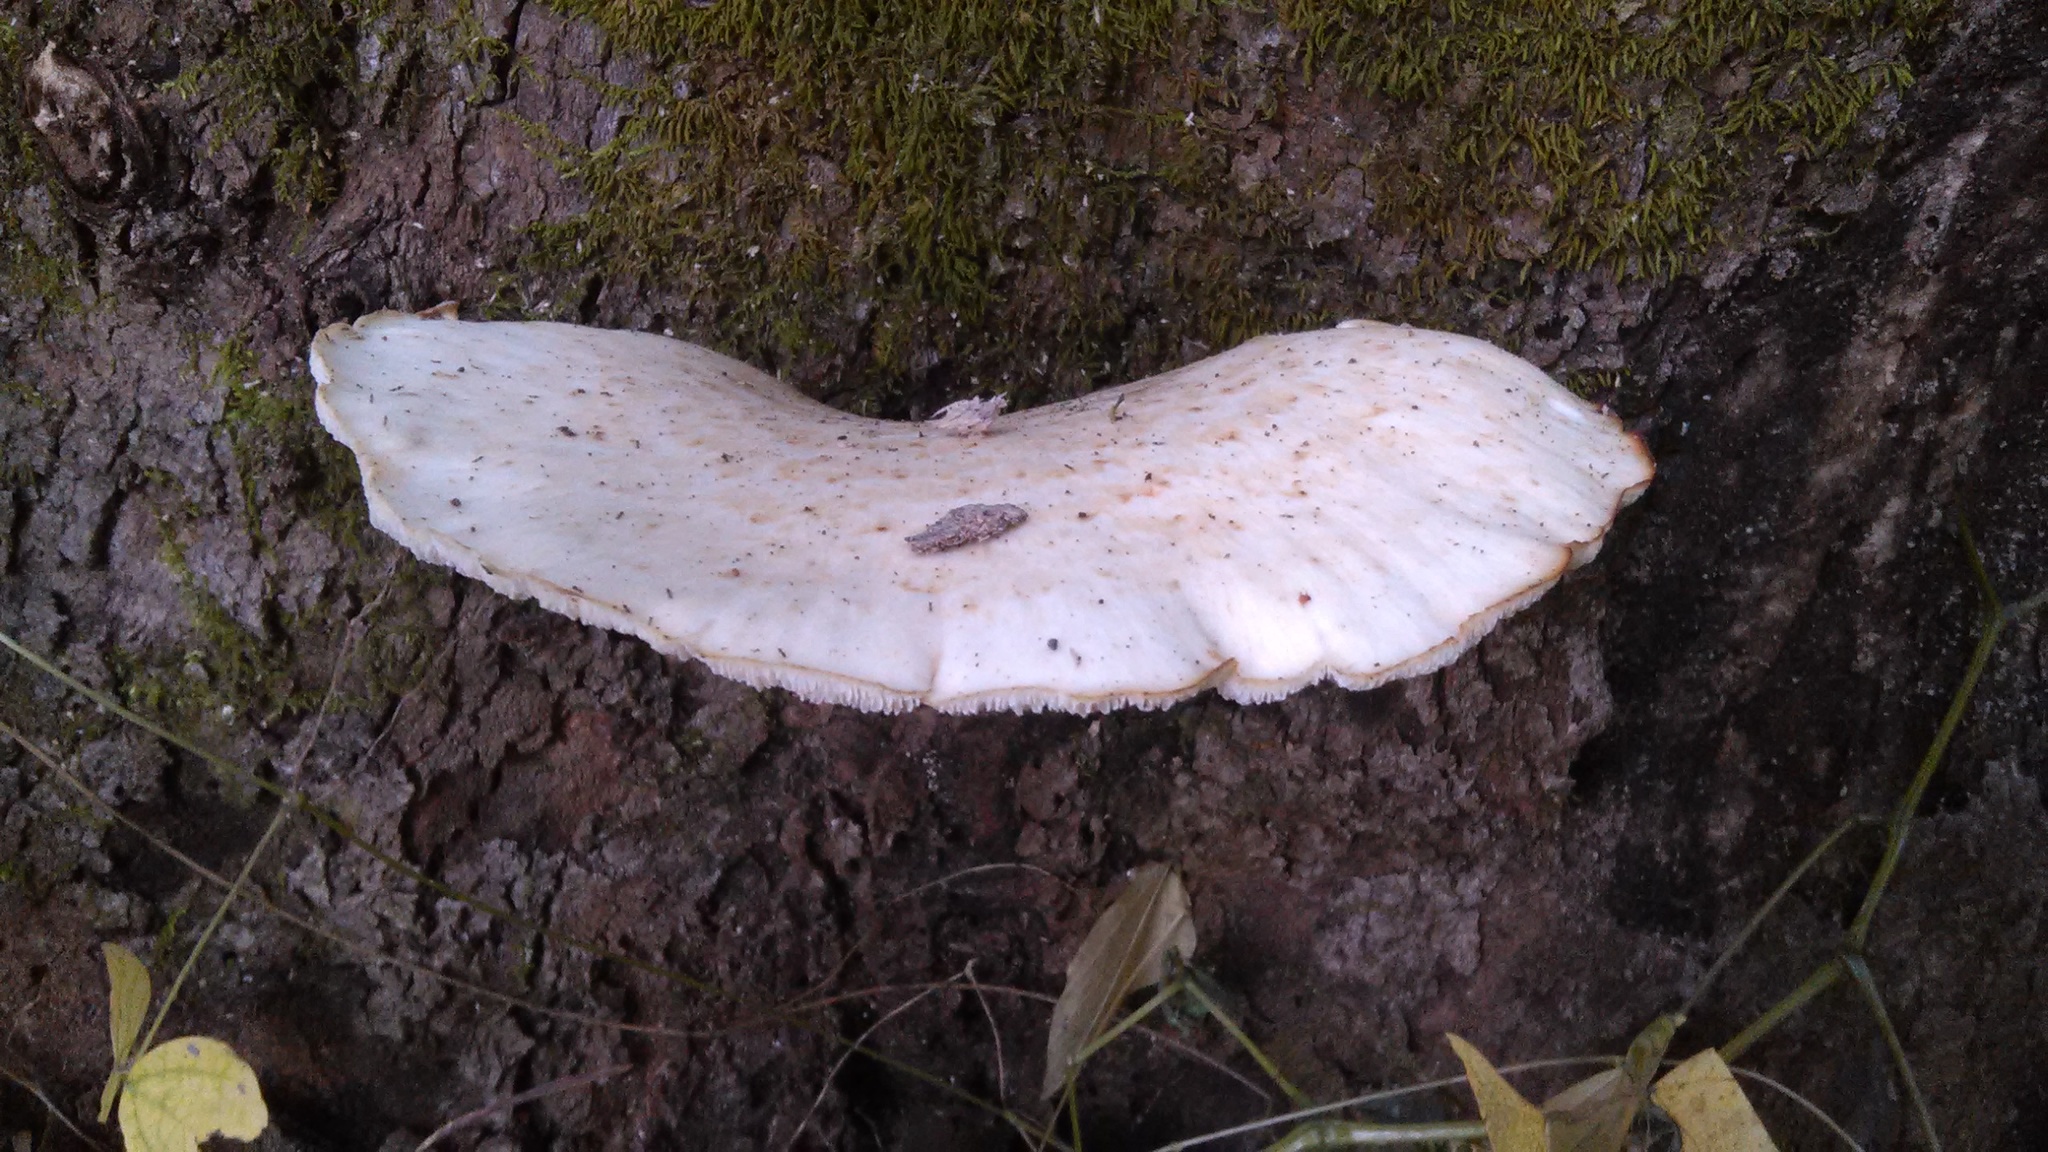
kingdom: Fungi
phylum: Basidiomycota
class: Agaricomycetes
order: Polyporales
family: Polyporaceae
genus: Cerioporus
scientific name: Cerioporus squamosus
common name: Dryad's saddle
